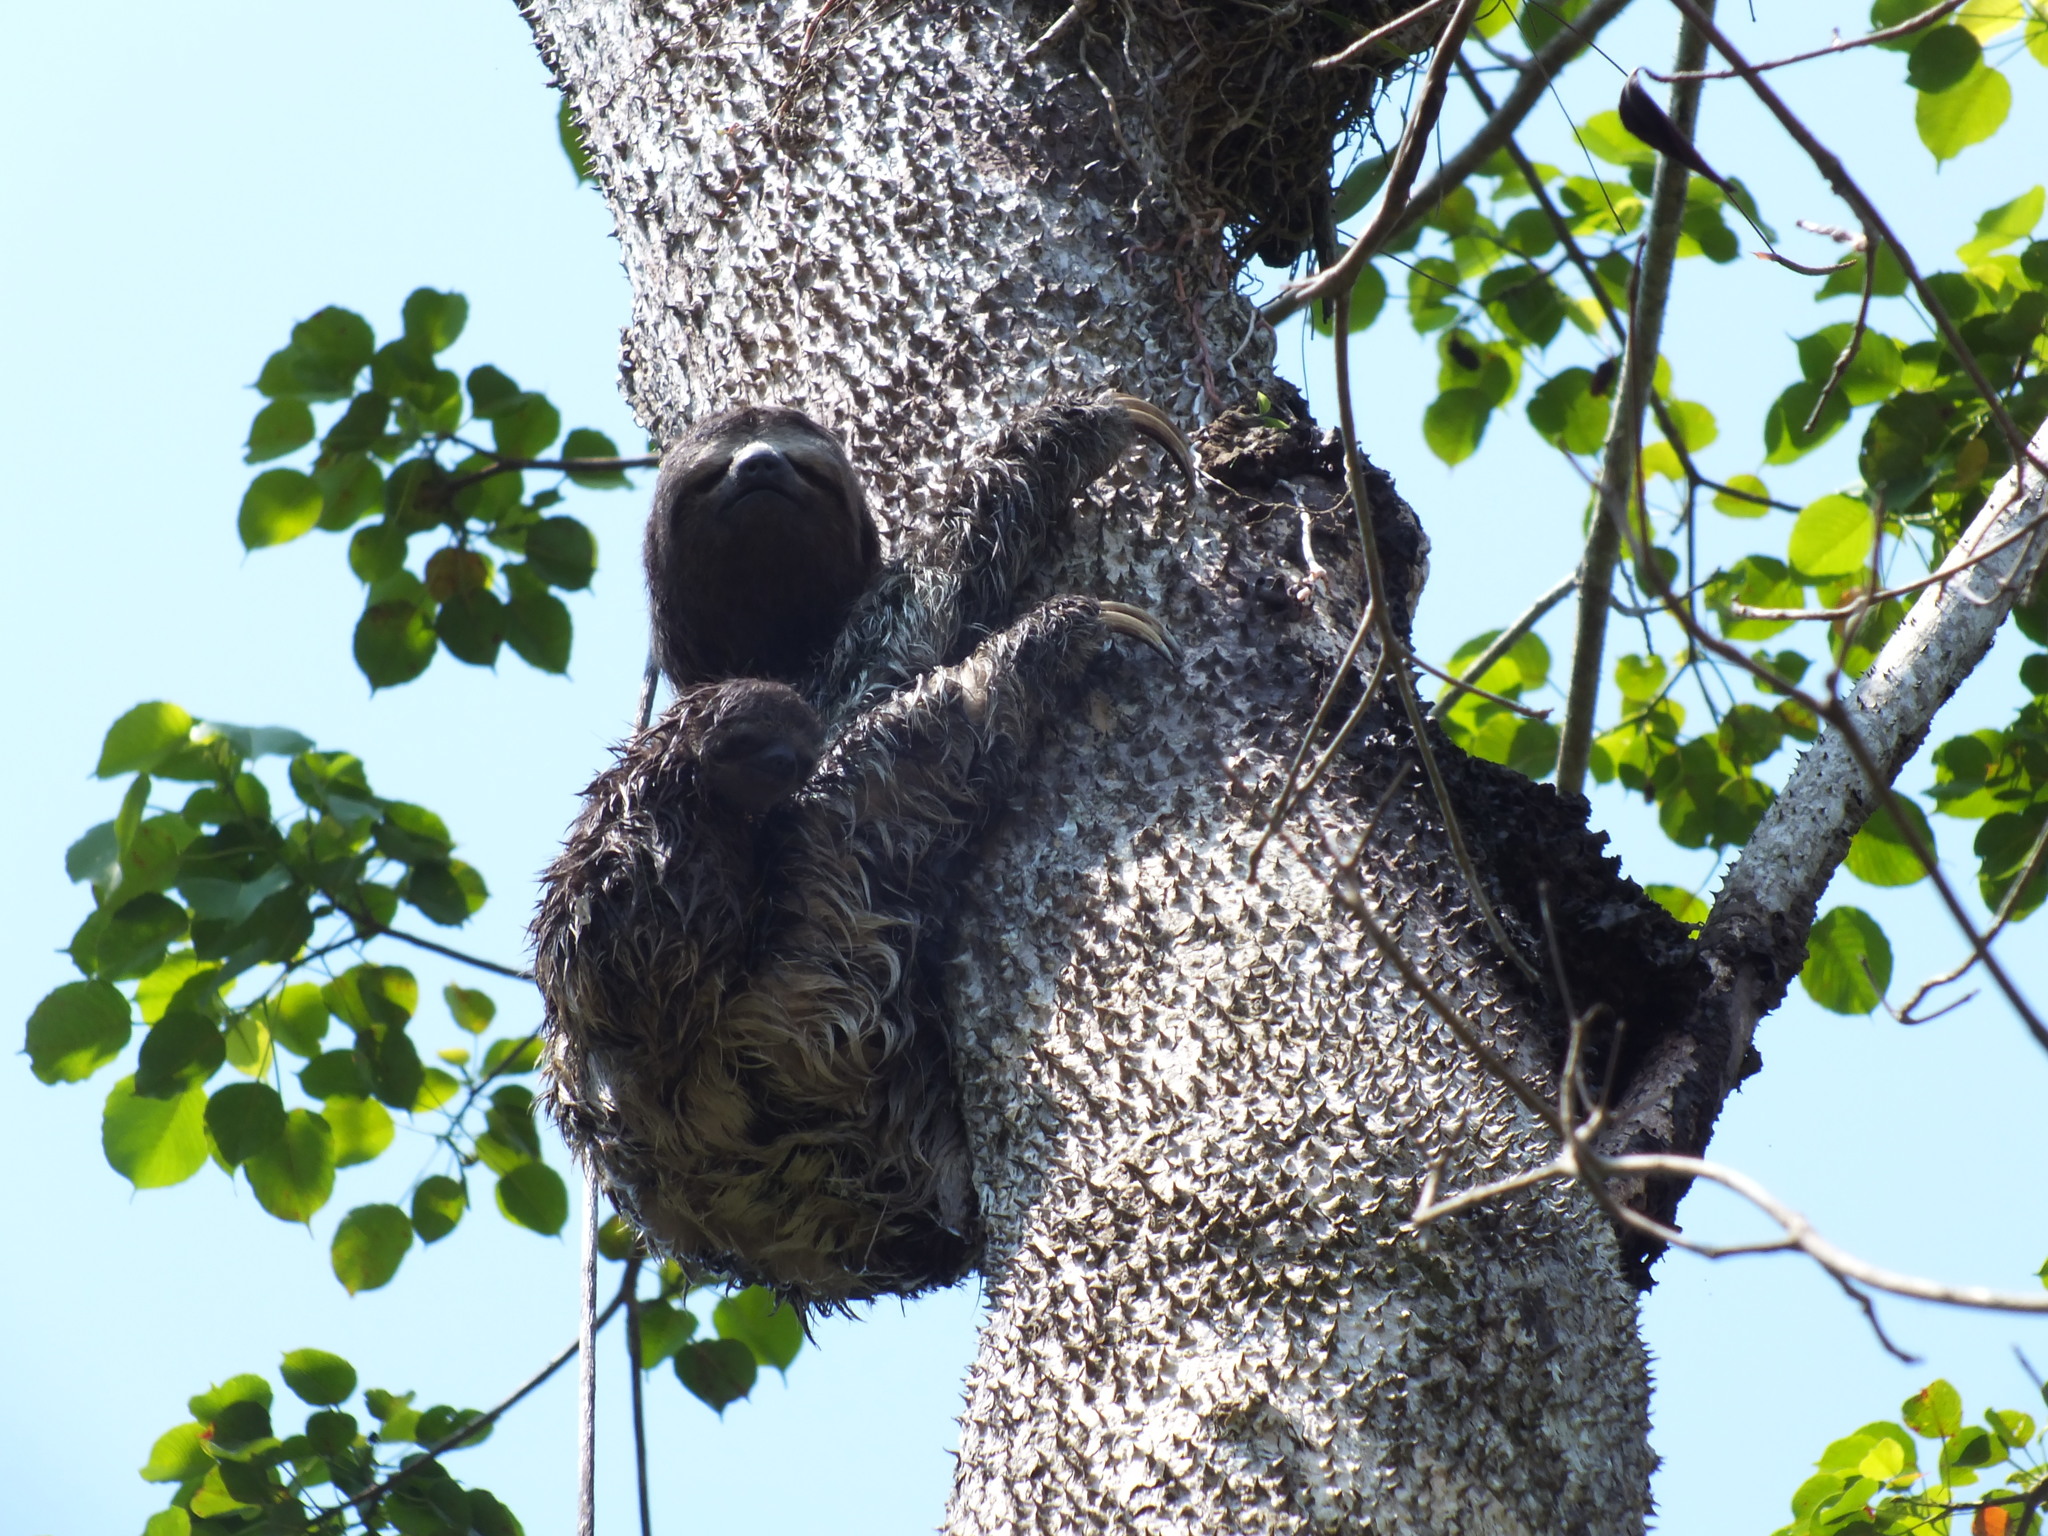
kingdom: Animalia
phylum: Chordata
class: Mammalia
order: Pilosa
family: Bradypodidae
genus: Bradypus
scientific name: Bradypus variegatus
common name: Brown-throated three-toed sloth
